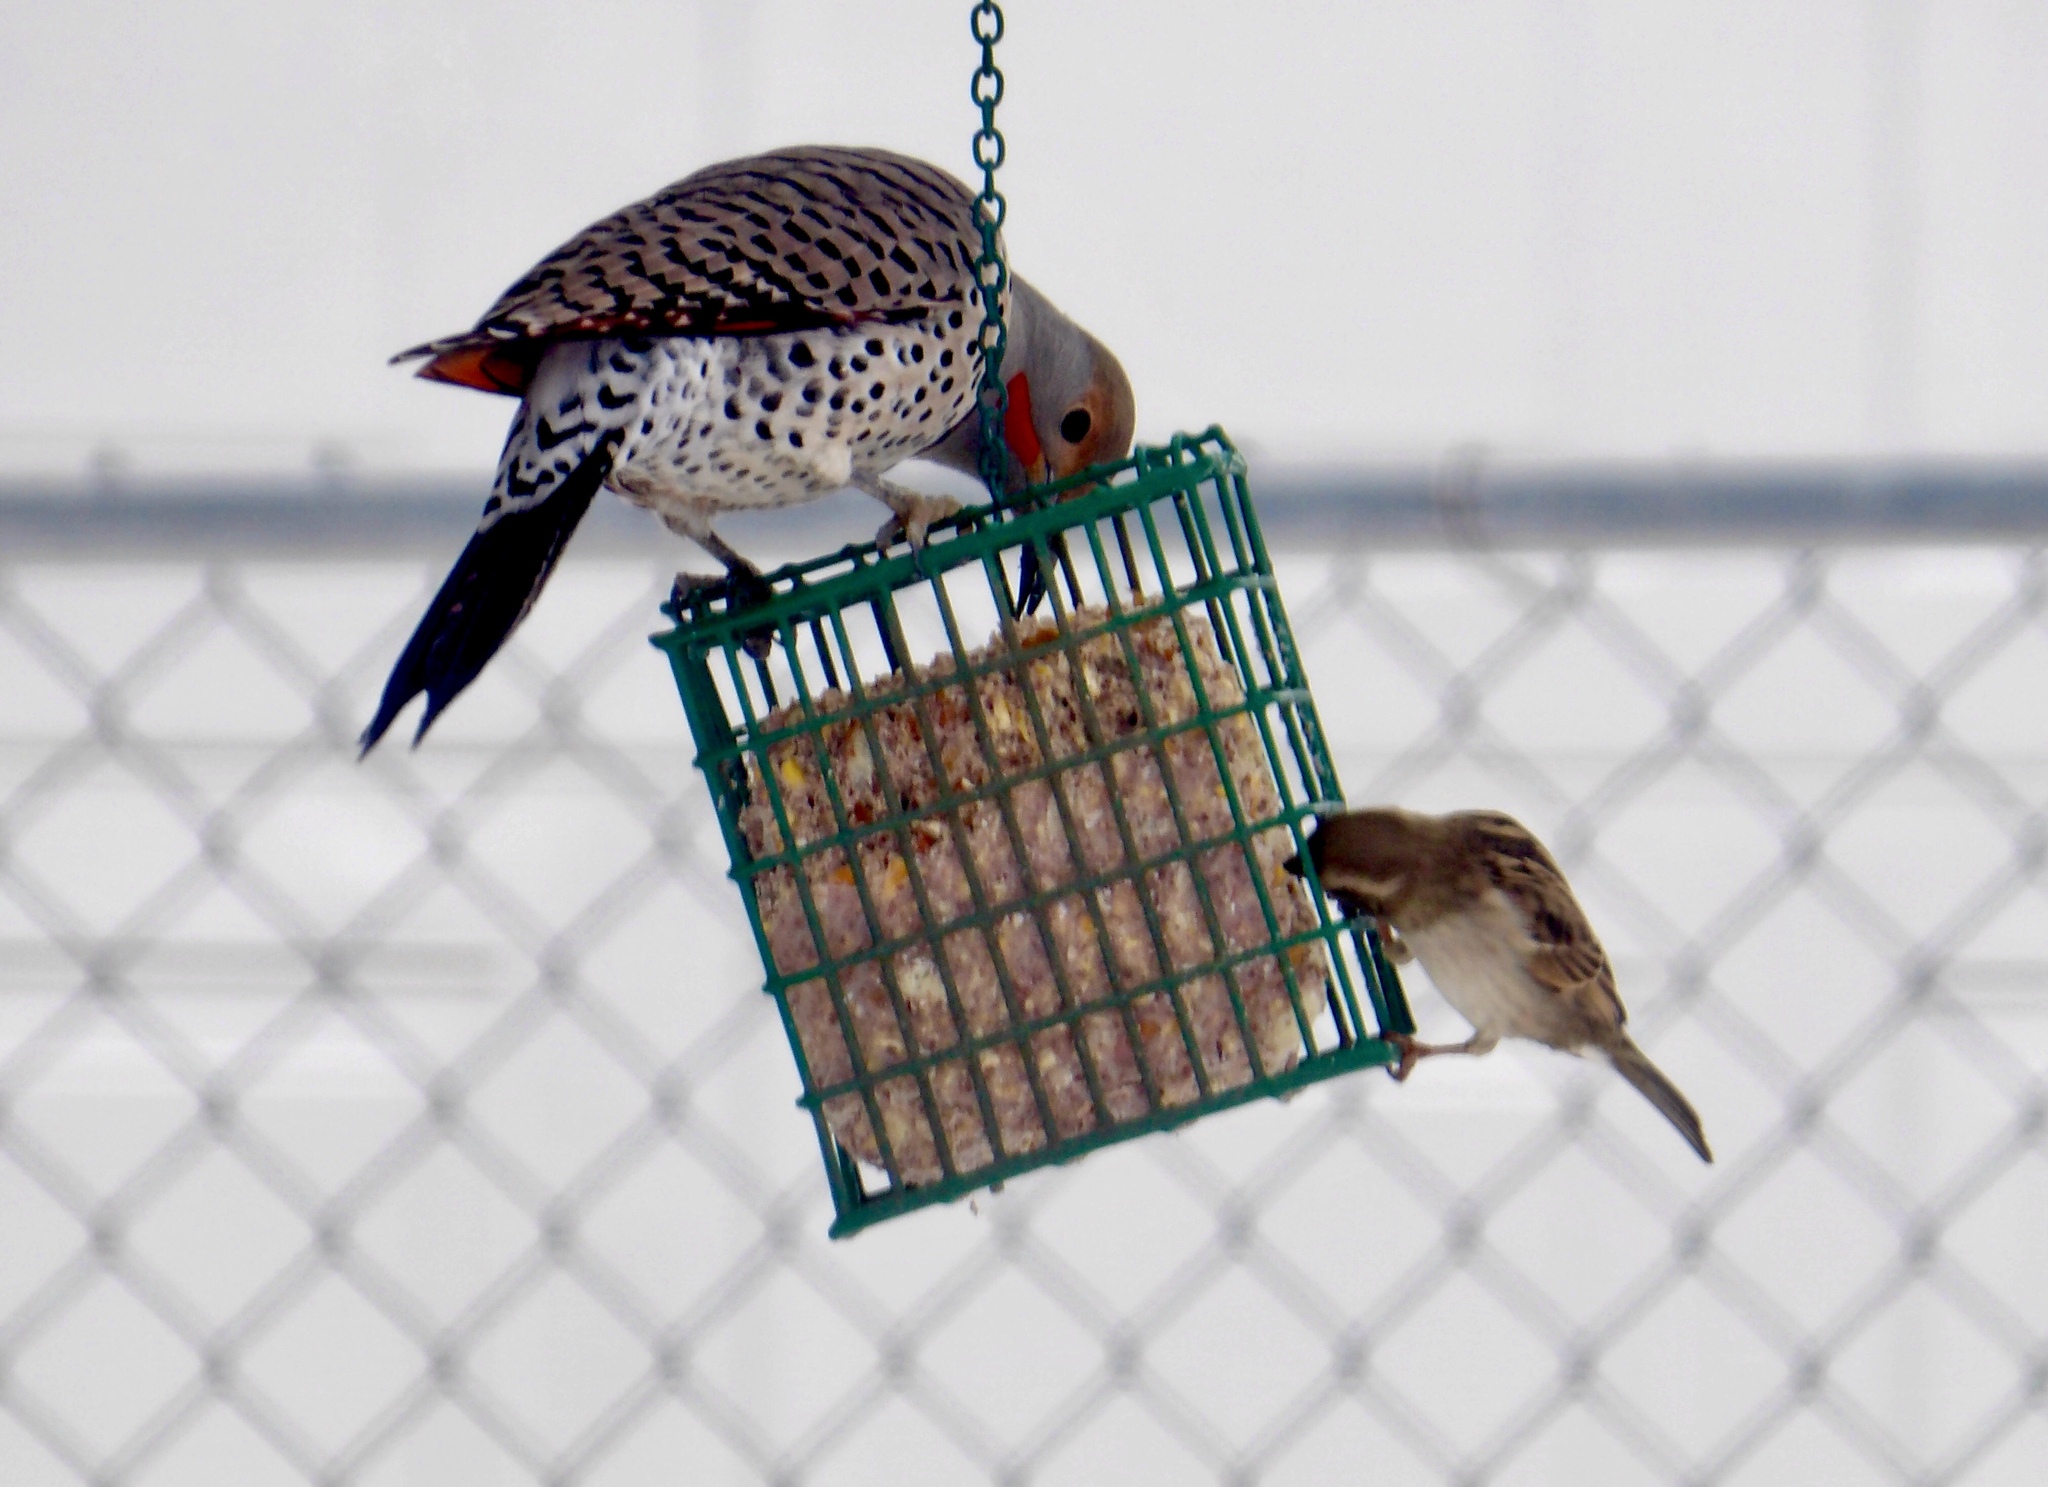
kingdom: Animalia
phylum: Chordata
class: Aves
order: Piciformes
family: Picidae
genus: Colaptes
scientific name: Colaptes auratus
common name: Northern flicker
